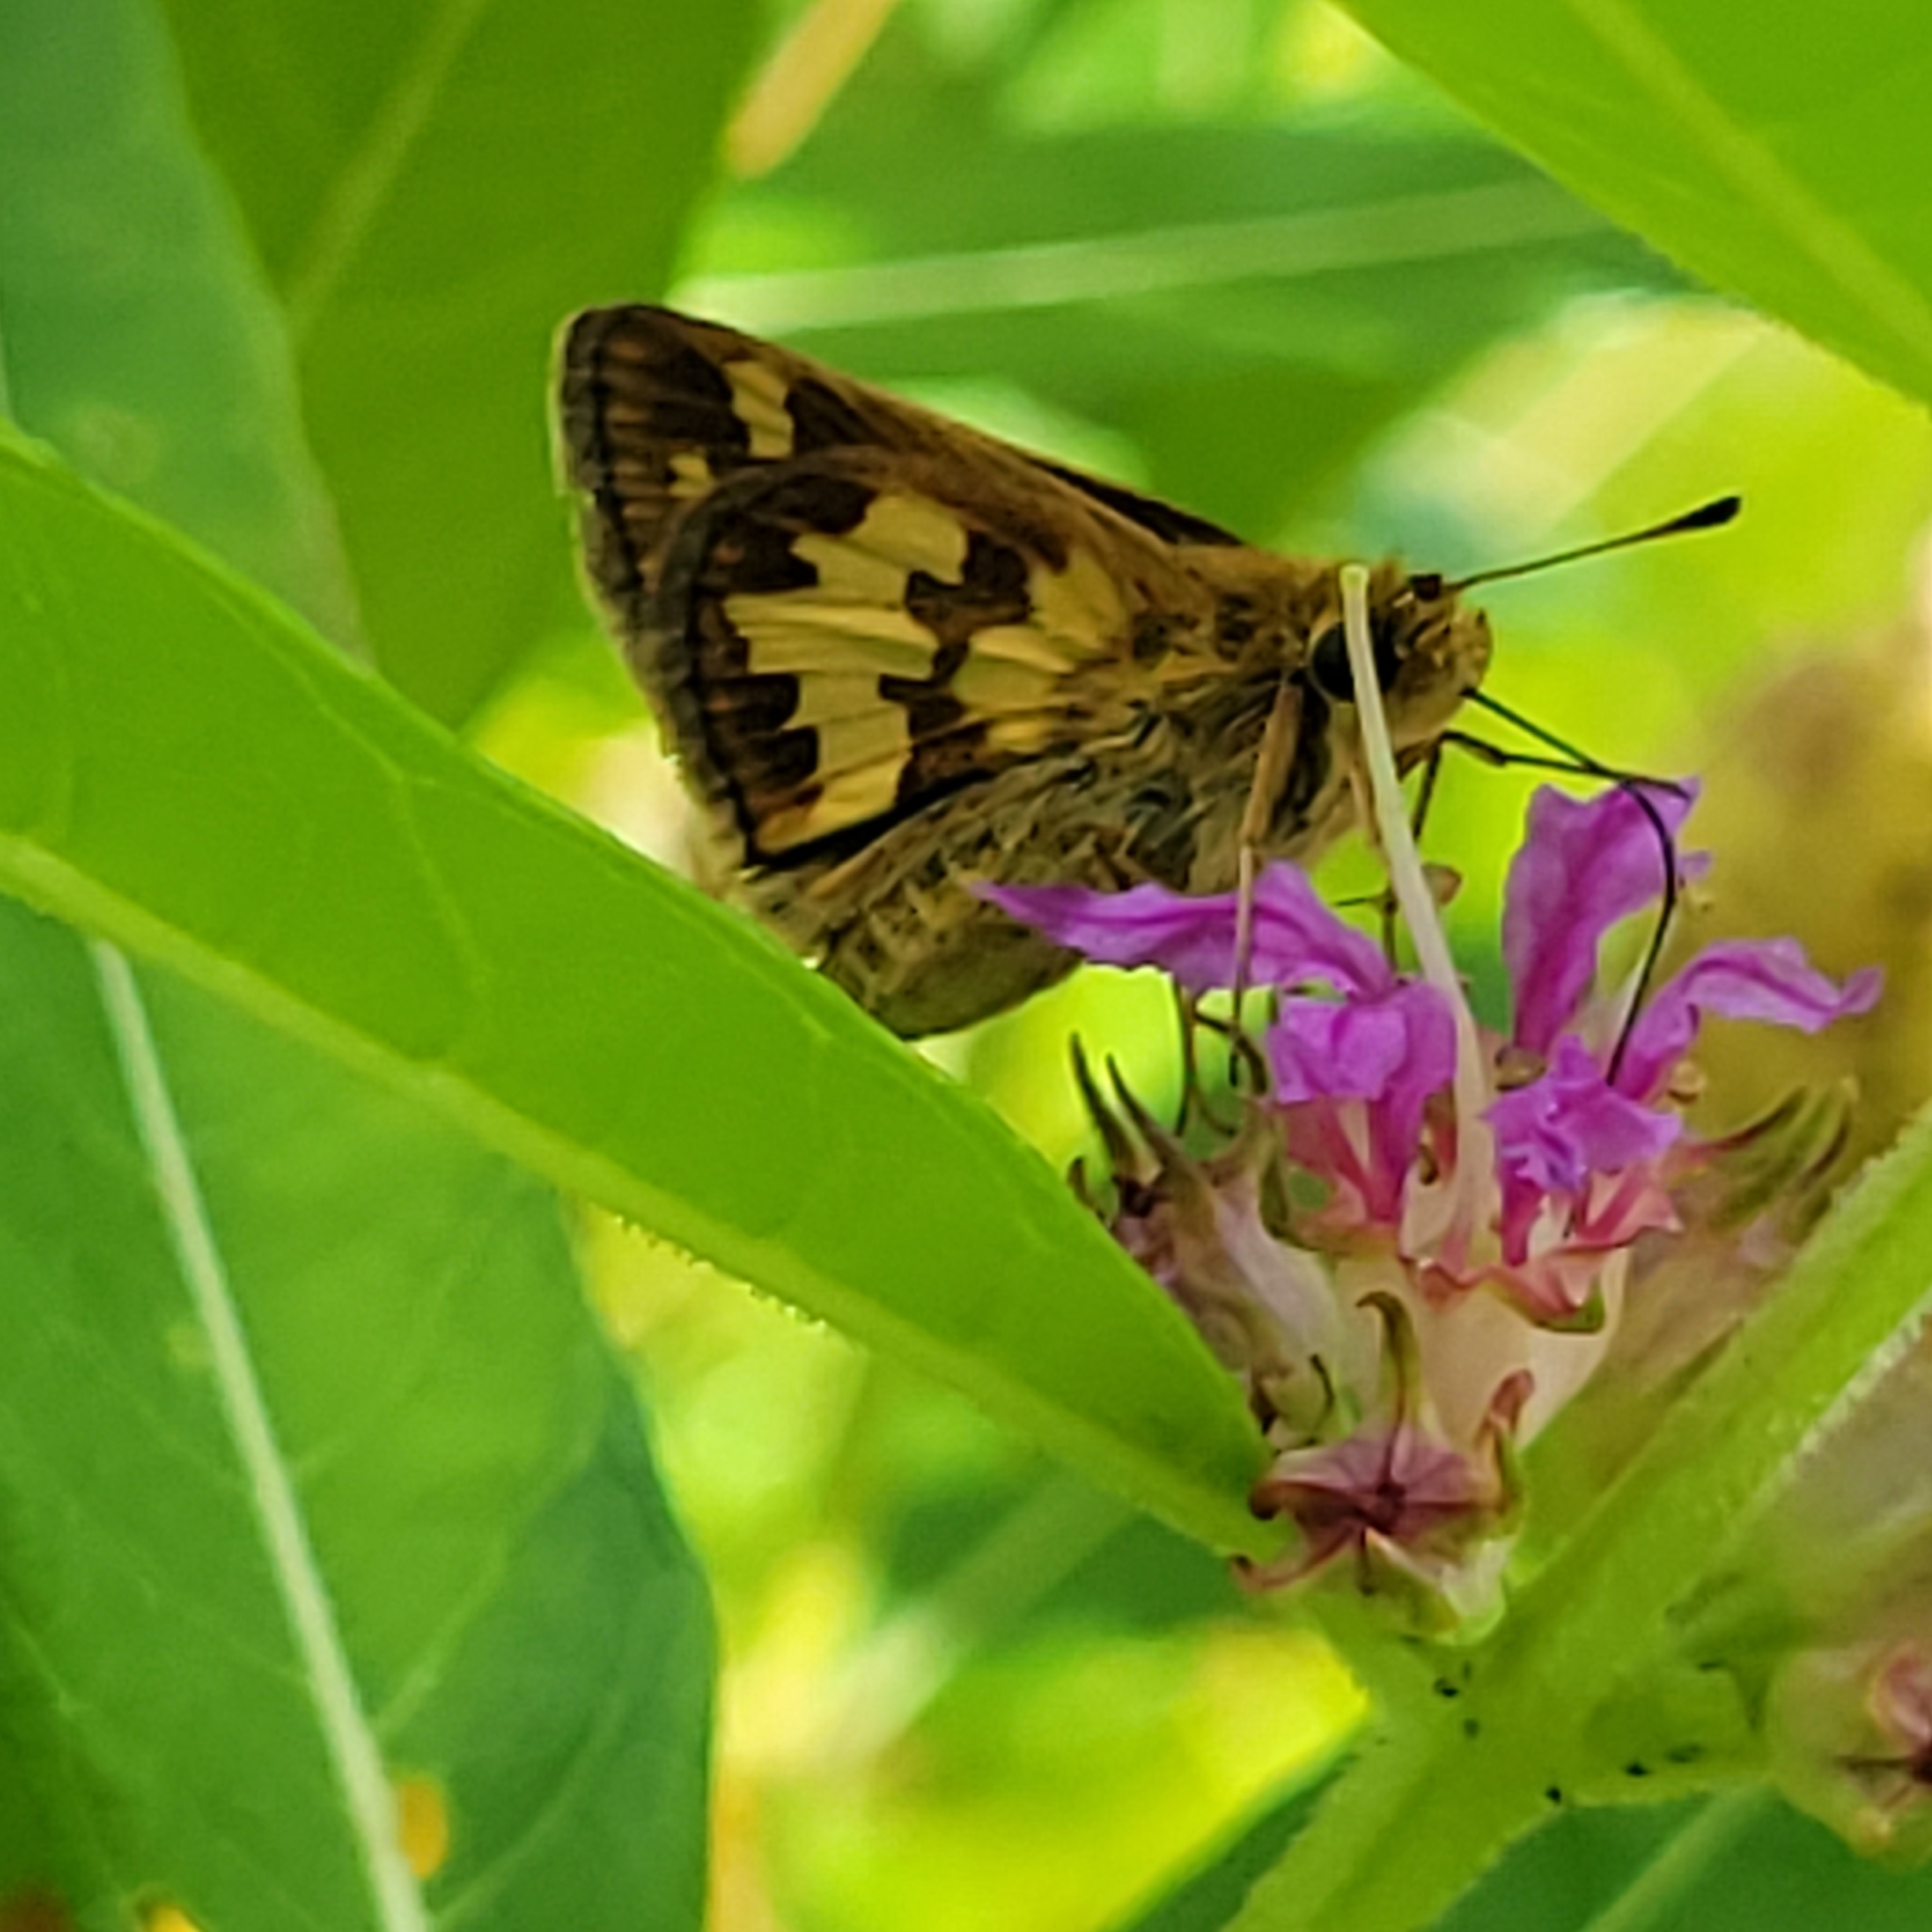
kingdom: Animalia
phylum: Arthropoda
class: Insecta
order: Lepidoptera
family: Hesperiidae
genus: Polites
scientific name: Polites coras
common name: Peck's skipper
